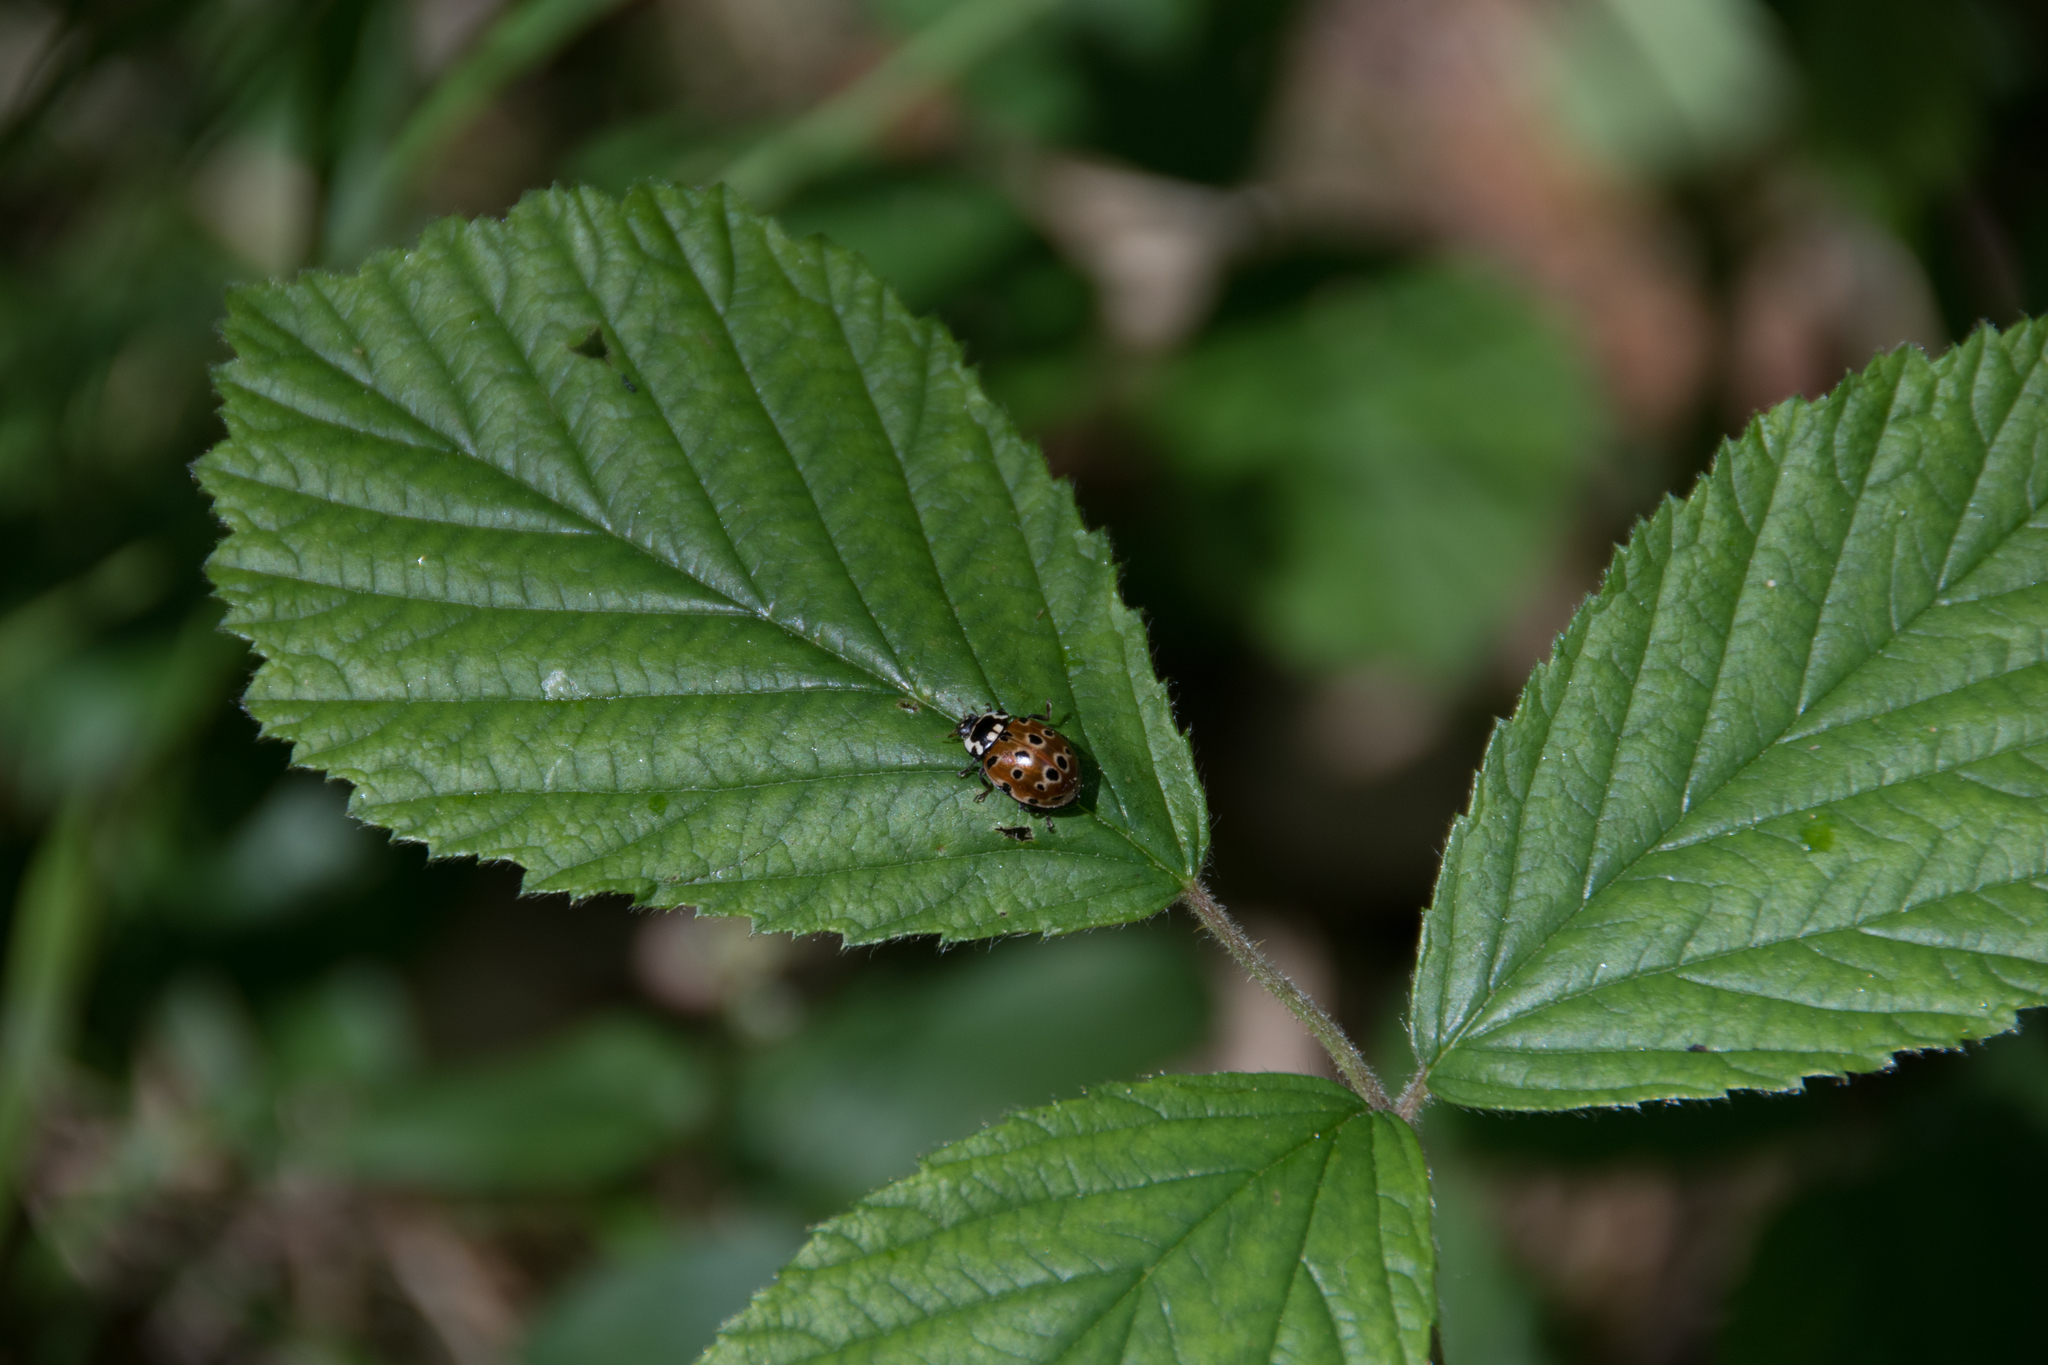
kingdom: Animalia
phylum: Arthropoda
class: Insecta
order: Coleoptera
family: Coccinellidae
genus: Anatis
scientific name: Anatis ocellata
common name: Eyed ladybird
